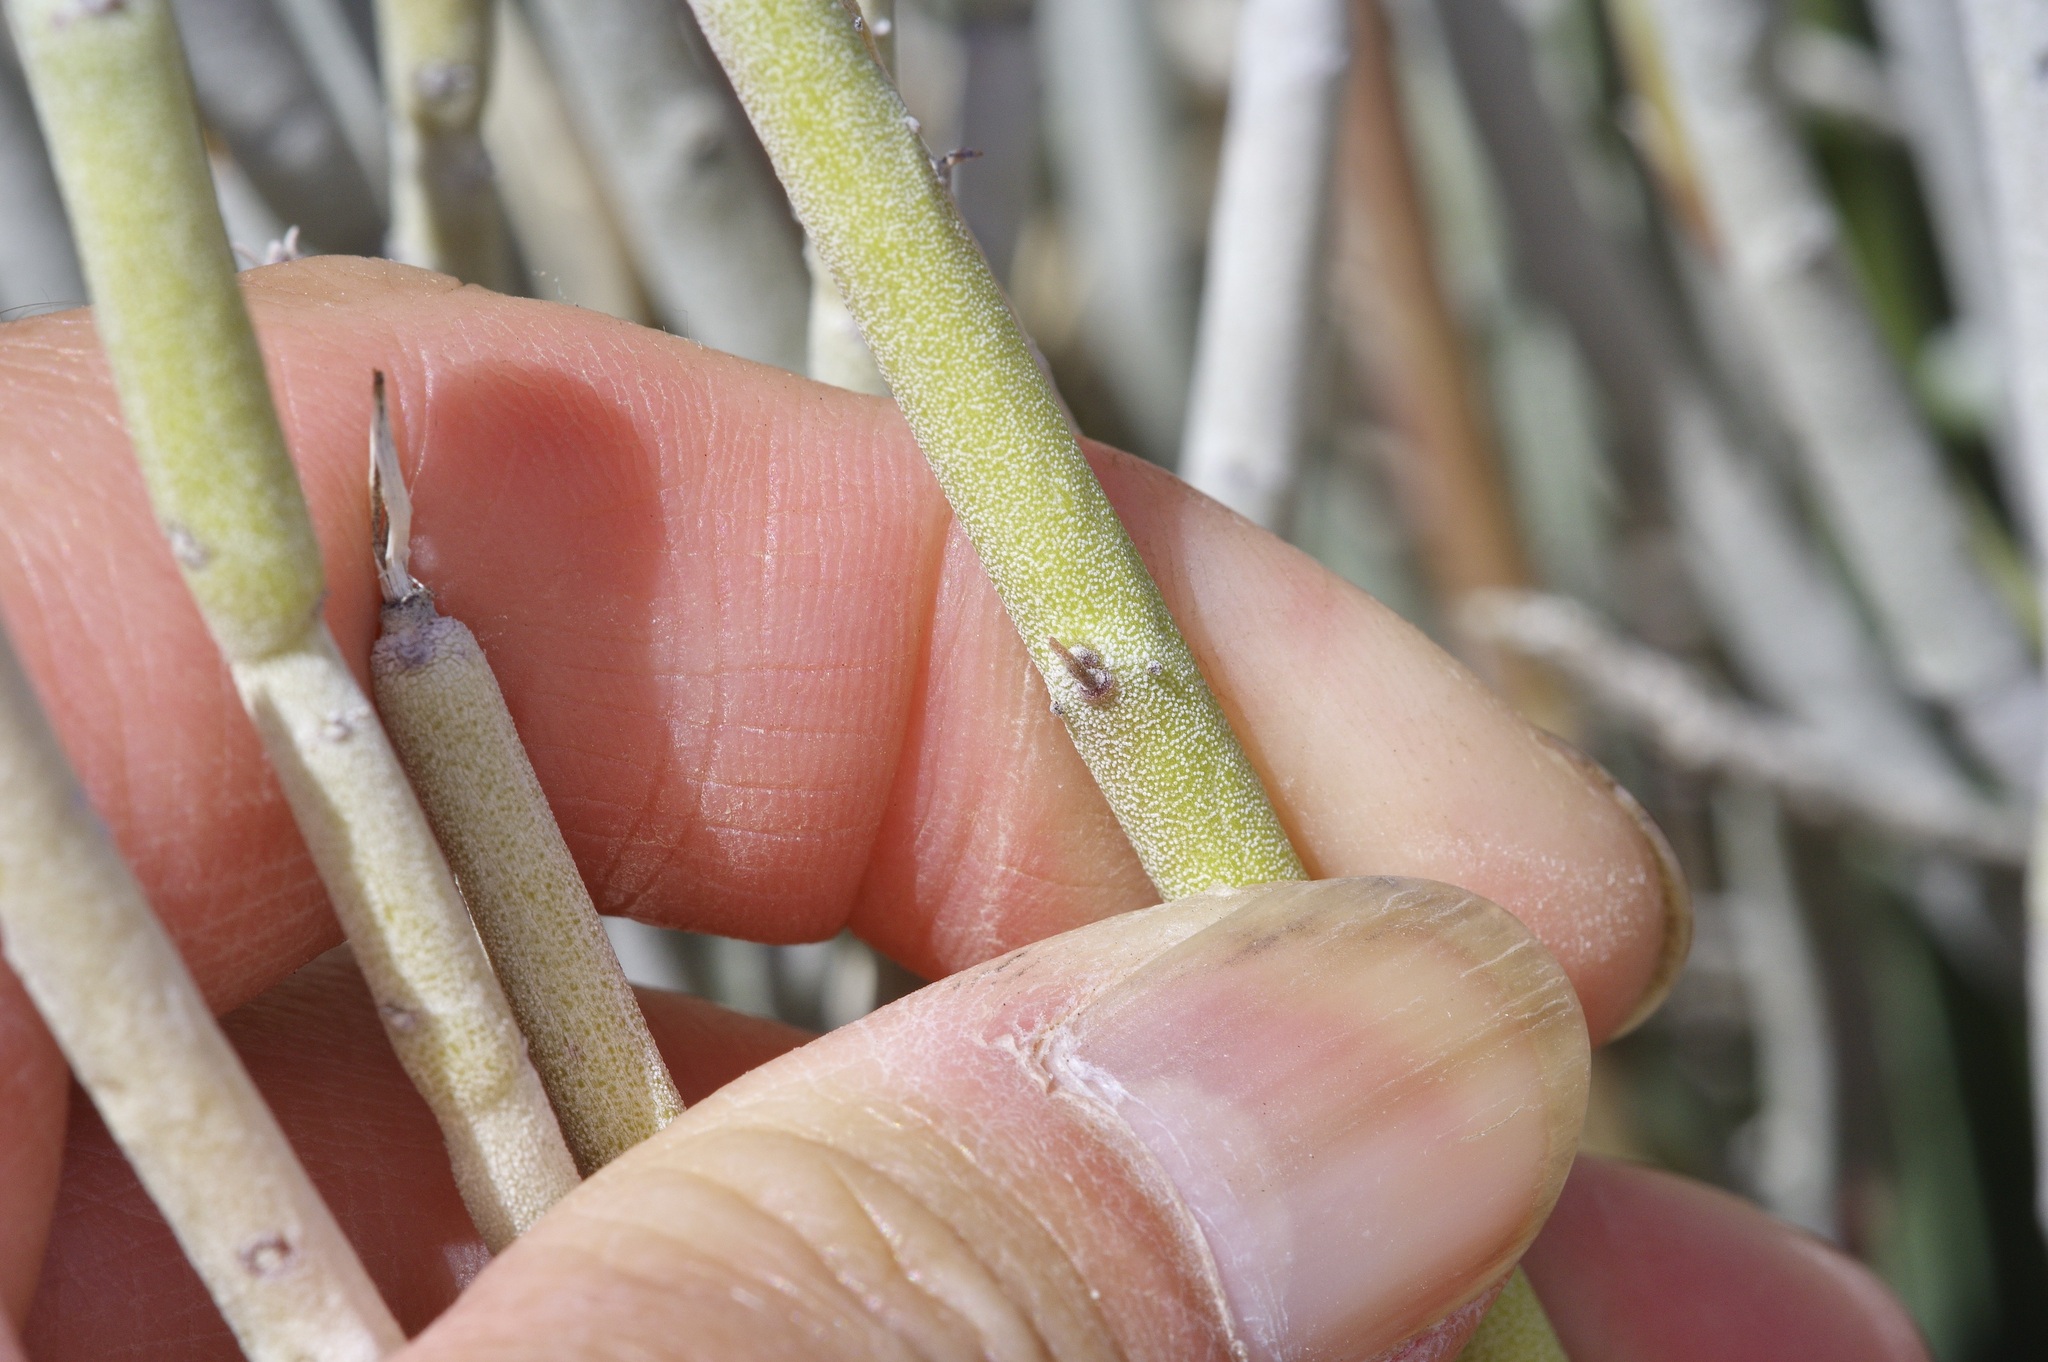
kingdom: Plantae
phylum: Tracheophyta
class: Magnoliopsida
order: Malpighiales
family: Euphorbiaceae
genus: Euphorbia
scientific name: Euphorbia antisyphilitica
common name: Candelilla
